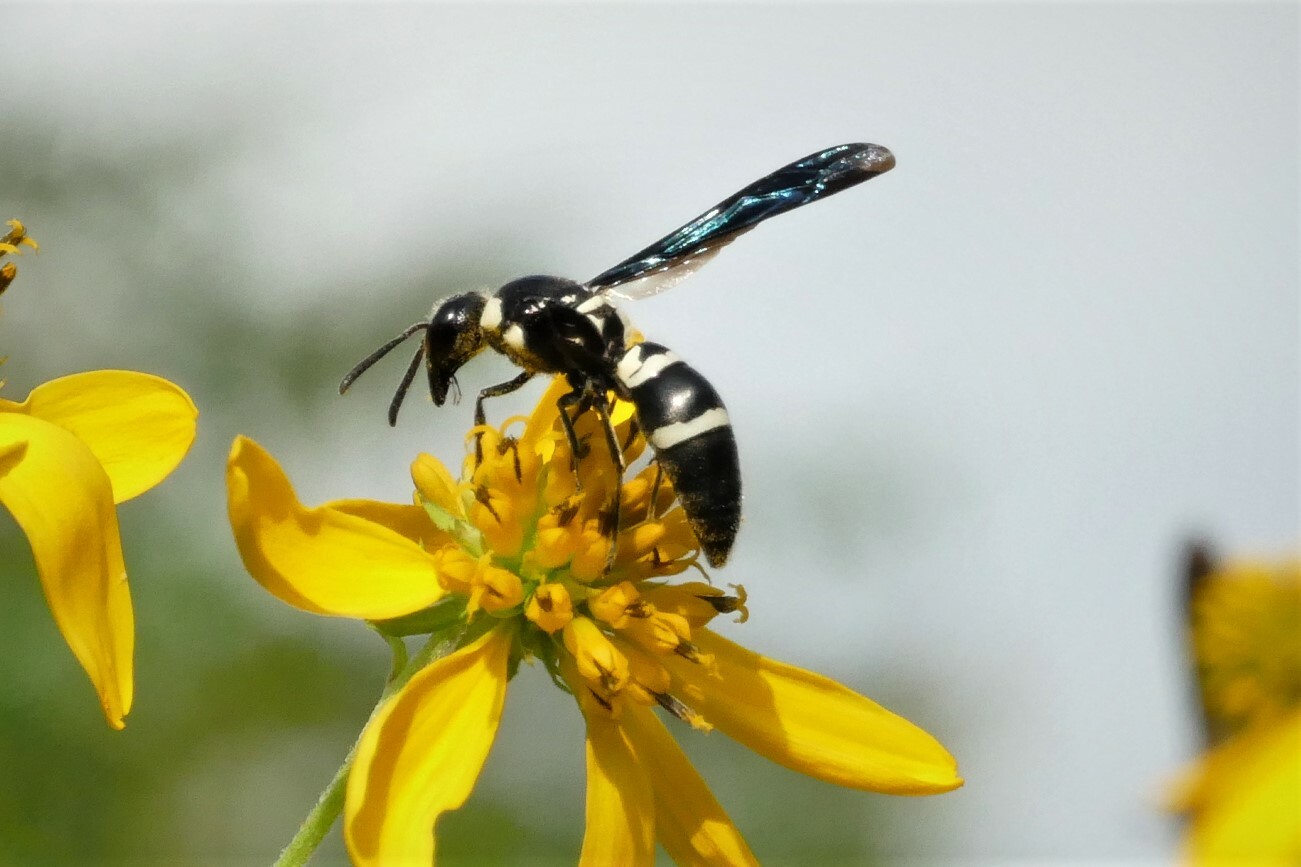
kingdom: Animalia
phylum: Arthropoda
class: Insecta
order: Hymenoptera
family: Eumenidae
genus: Pseudodynerus
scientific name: Pseudodynerus quadrisectus
